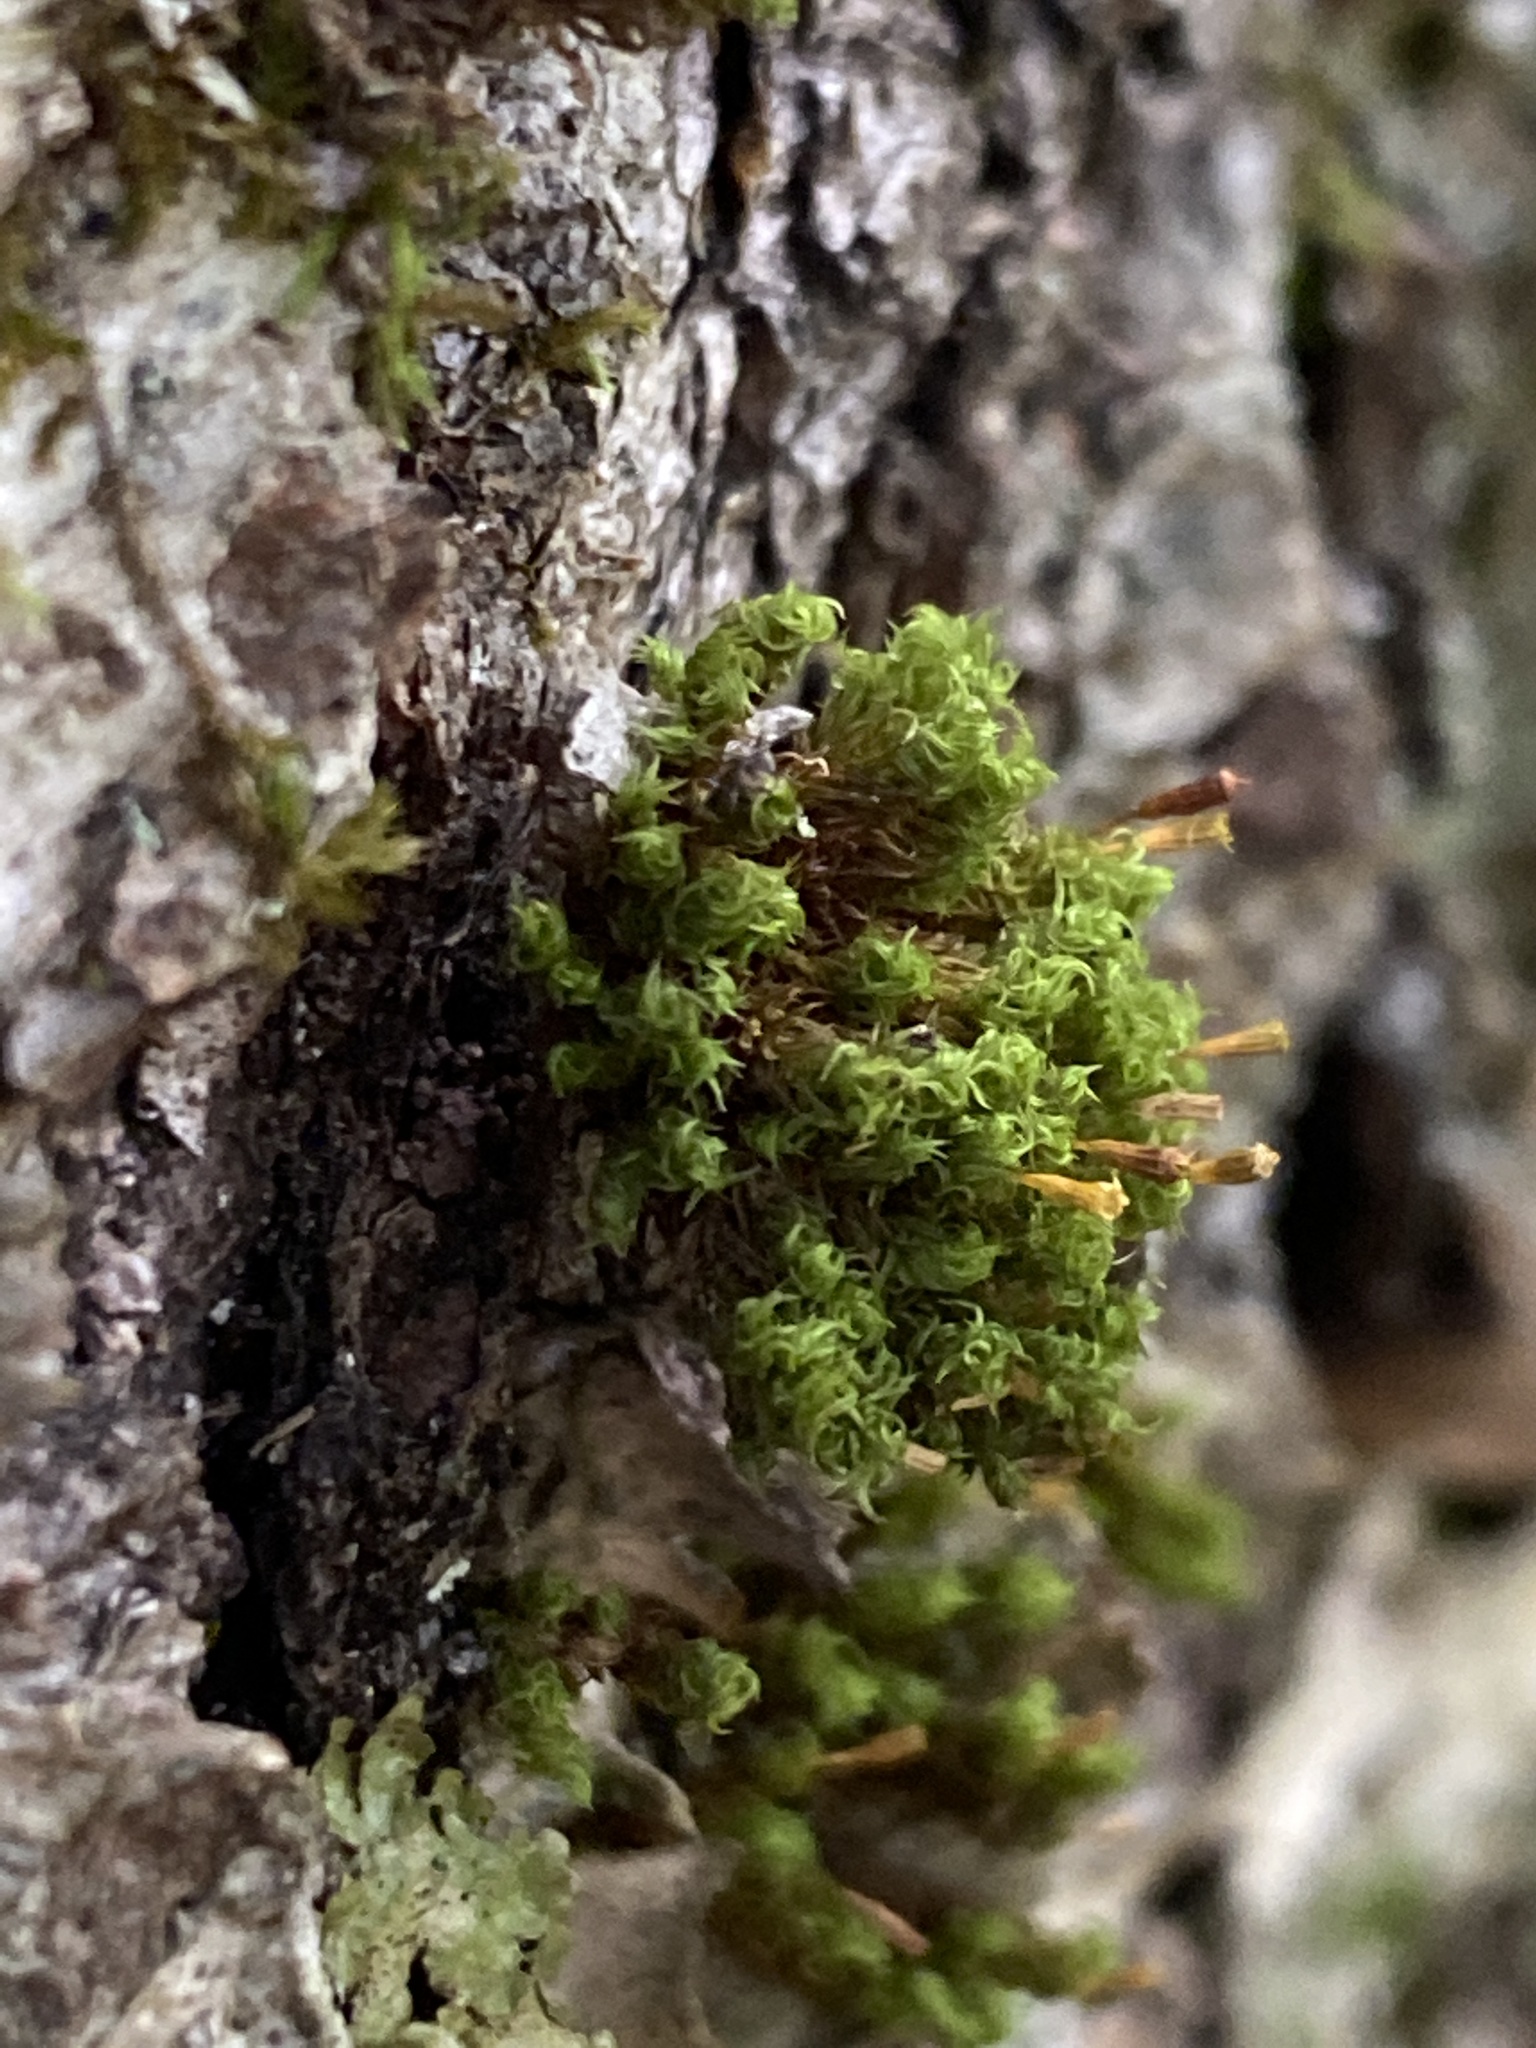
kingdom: Plantae
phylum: Bryophyta
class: Bryopsida
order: Orthotrichales
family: Orthotrichaceae
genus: Ulota
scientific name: Ulota crispa
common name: Crisped pincushion moss
